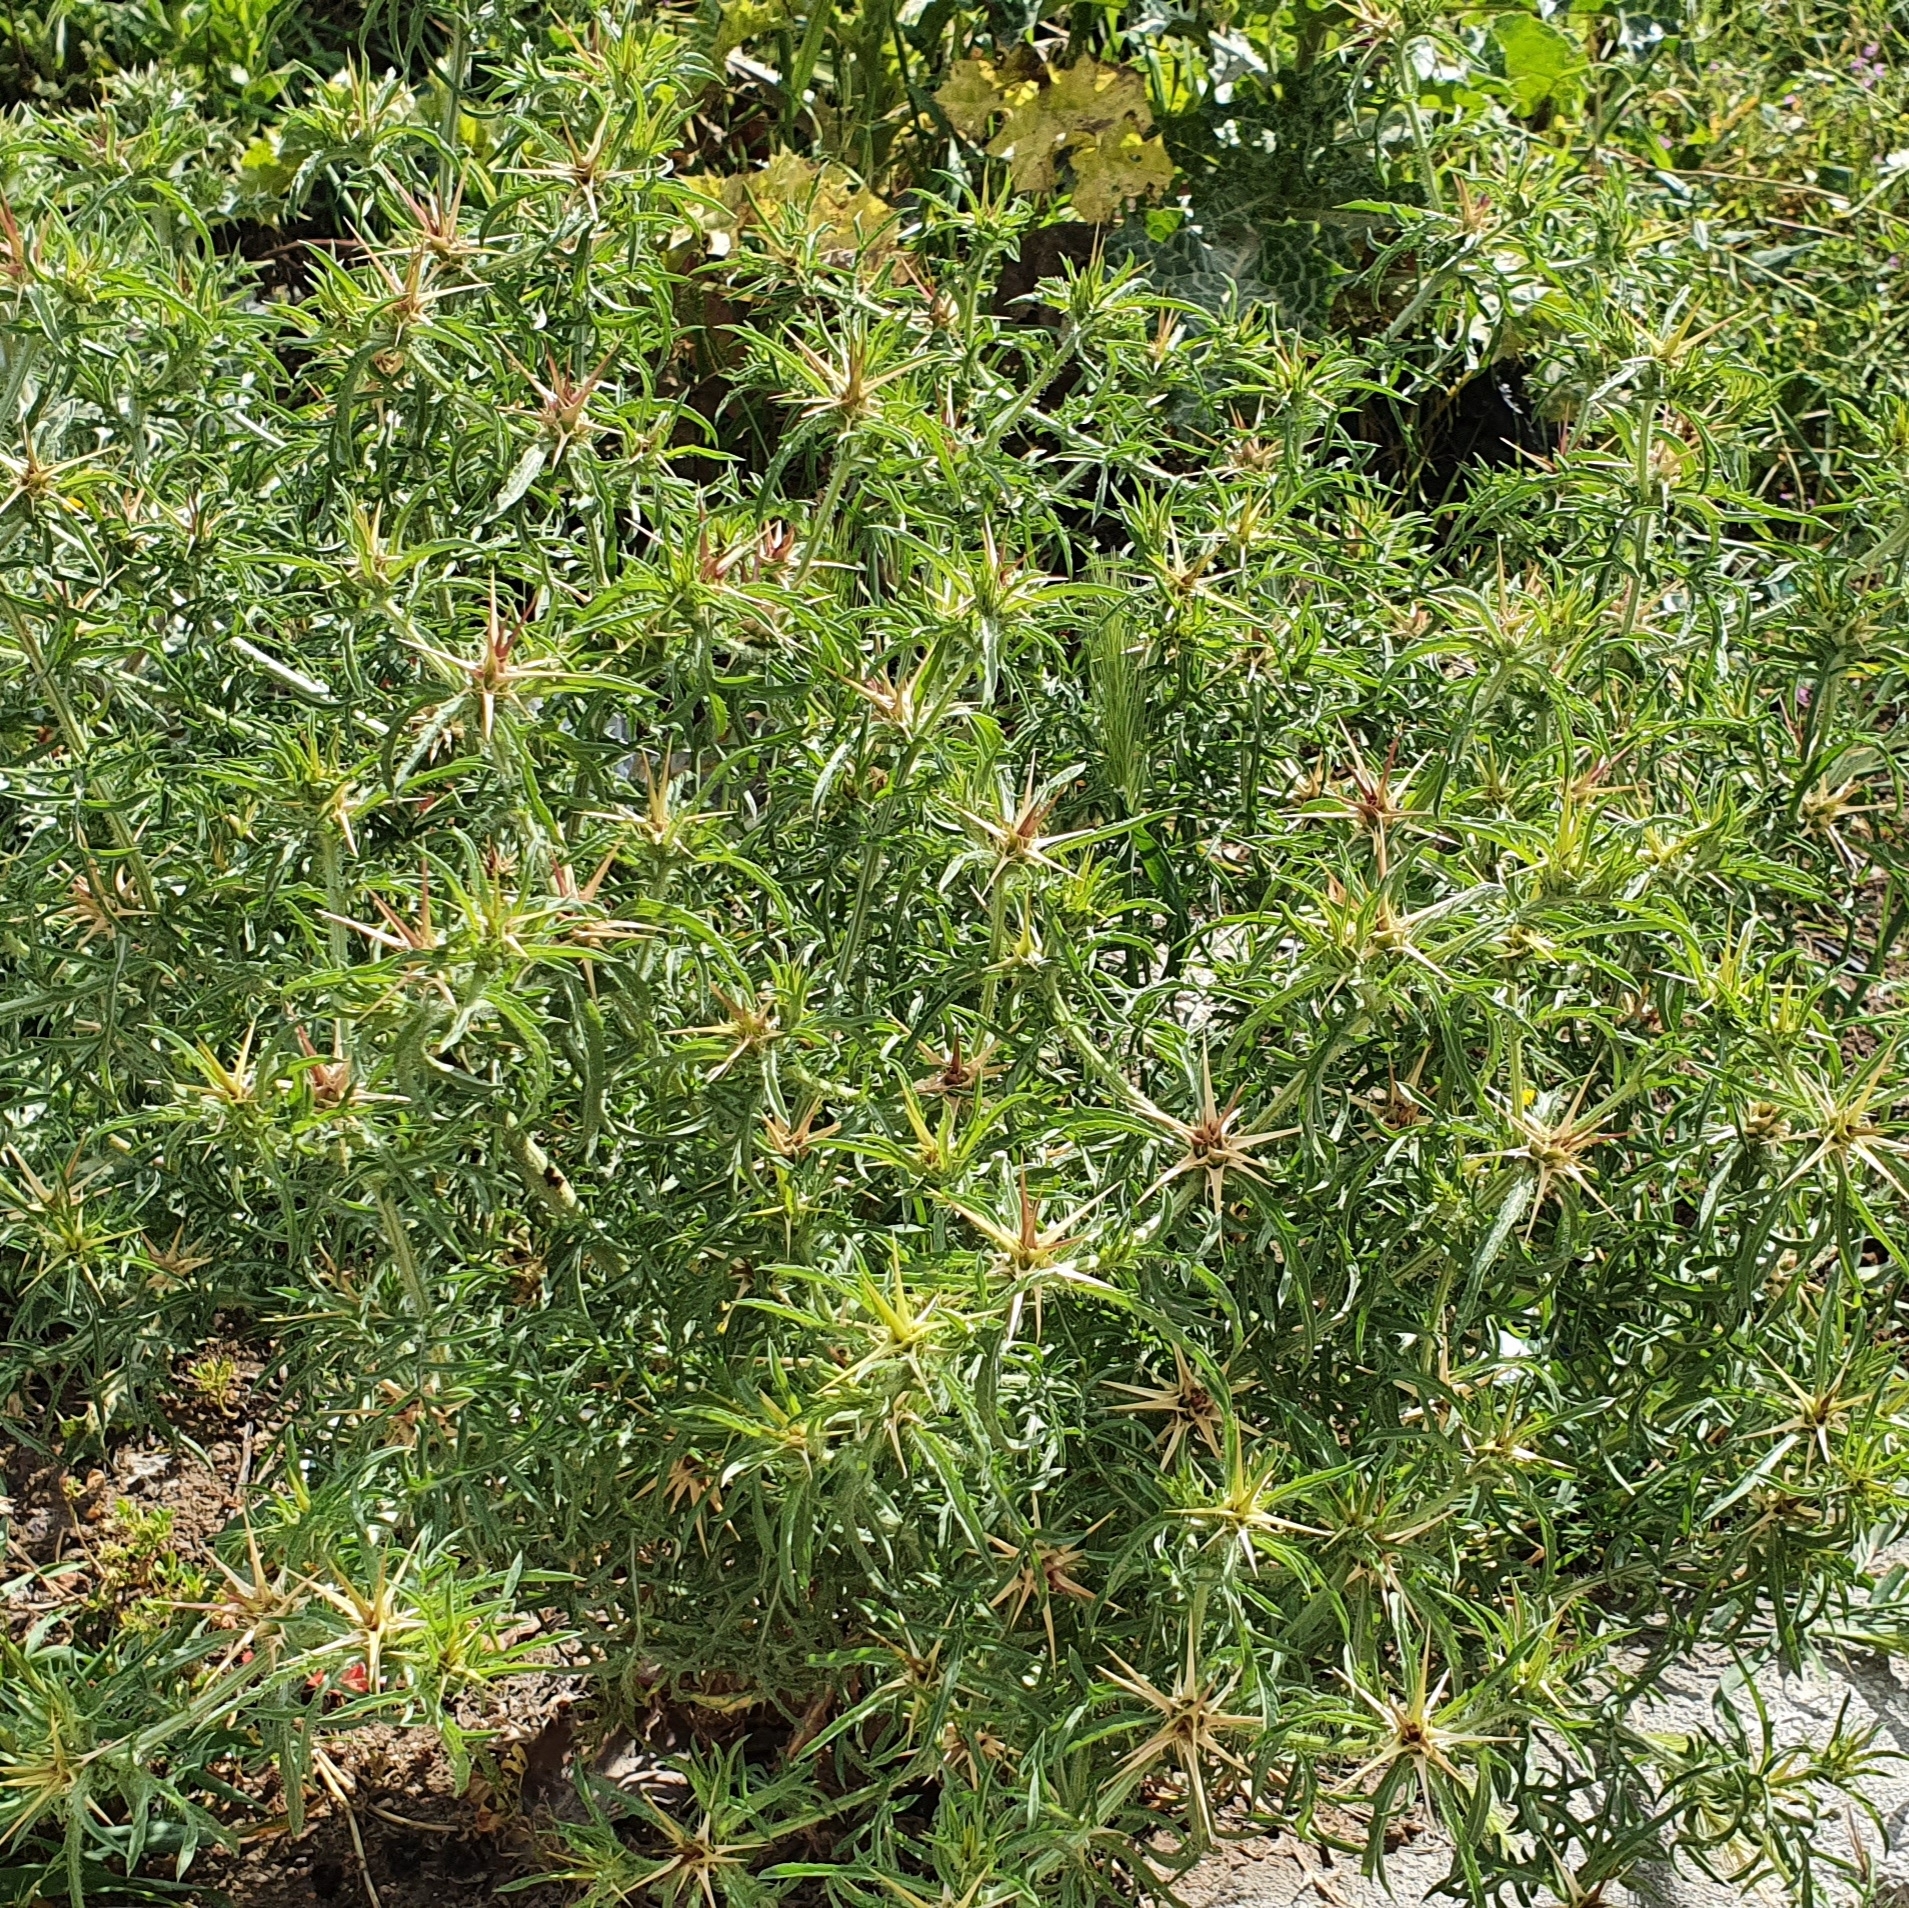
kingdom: Plantae
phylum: Tracheophyta
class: Magnoliopsida
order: Asterales
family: Asteraceae
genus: Centaurea
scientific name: Centaurea calcitrapa
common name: Red star-thistle
